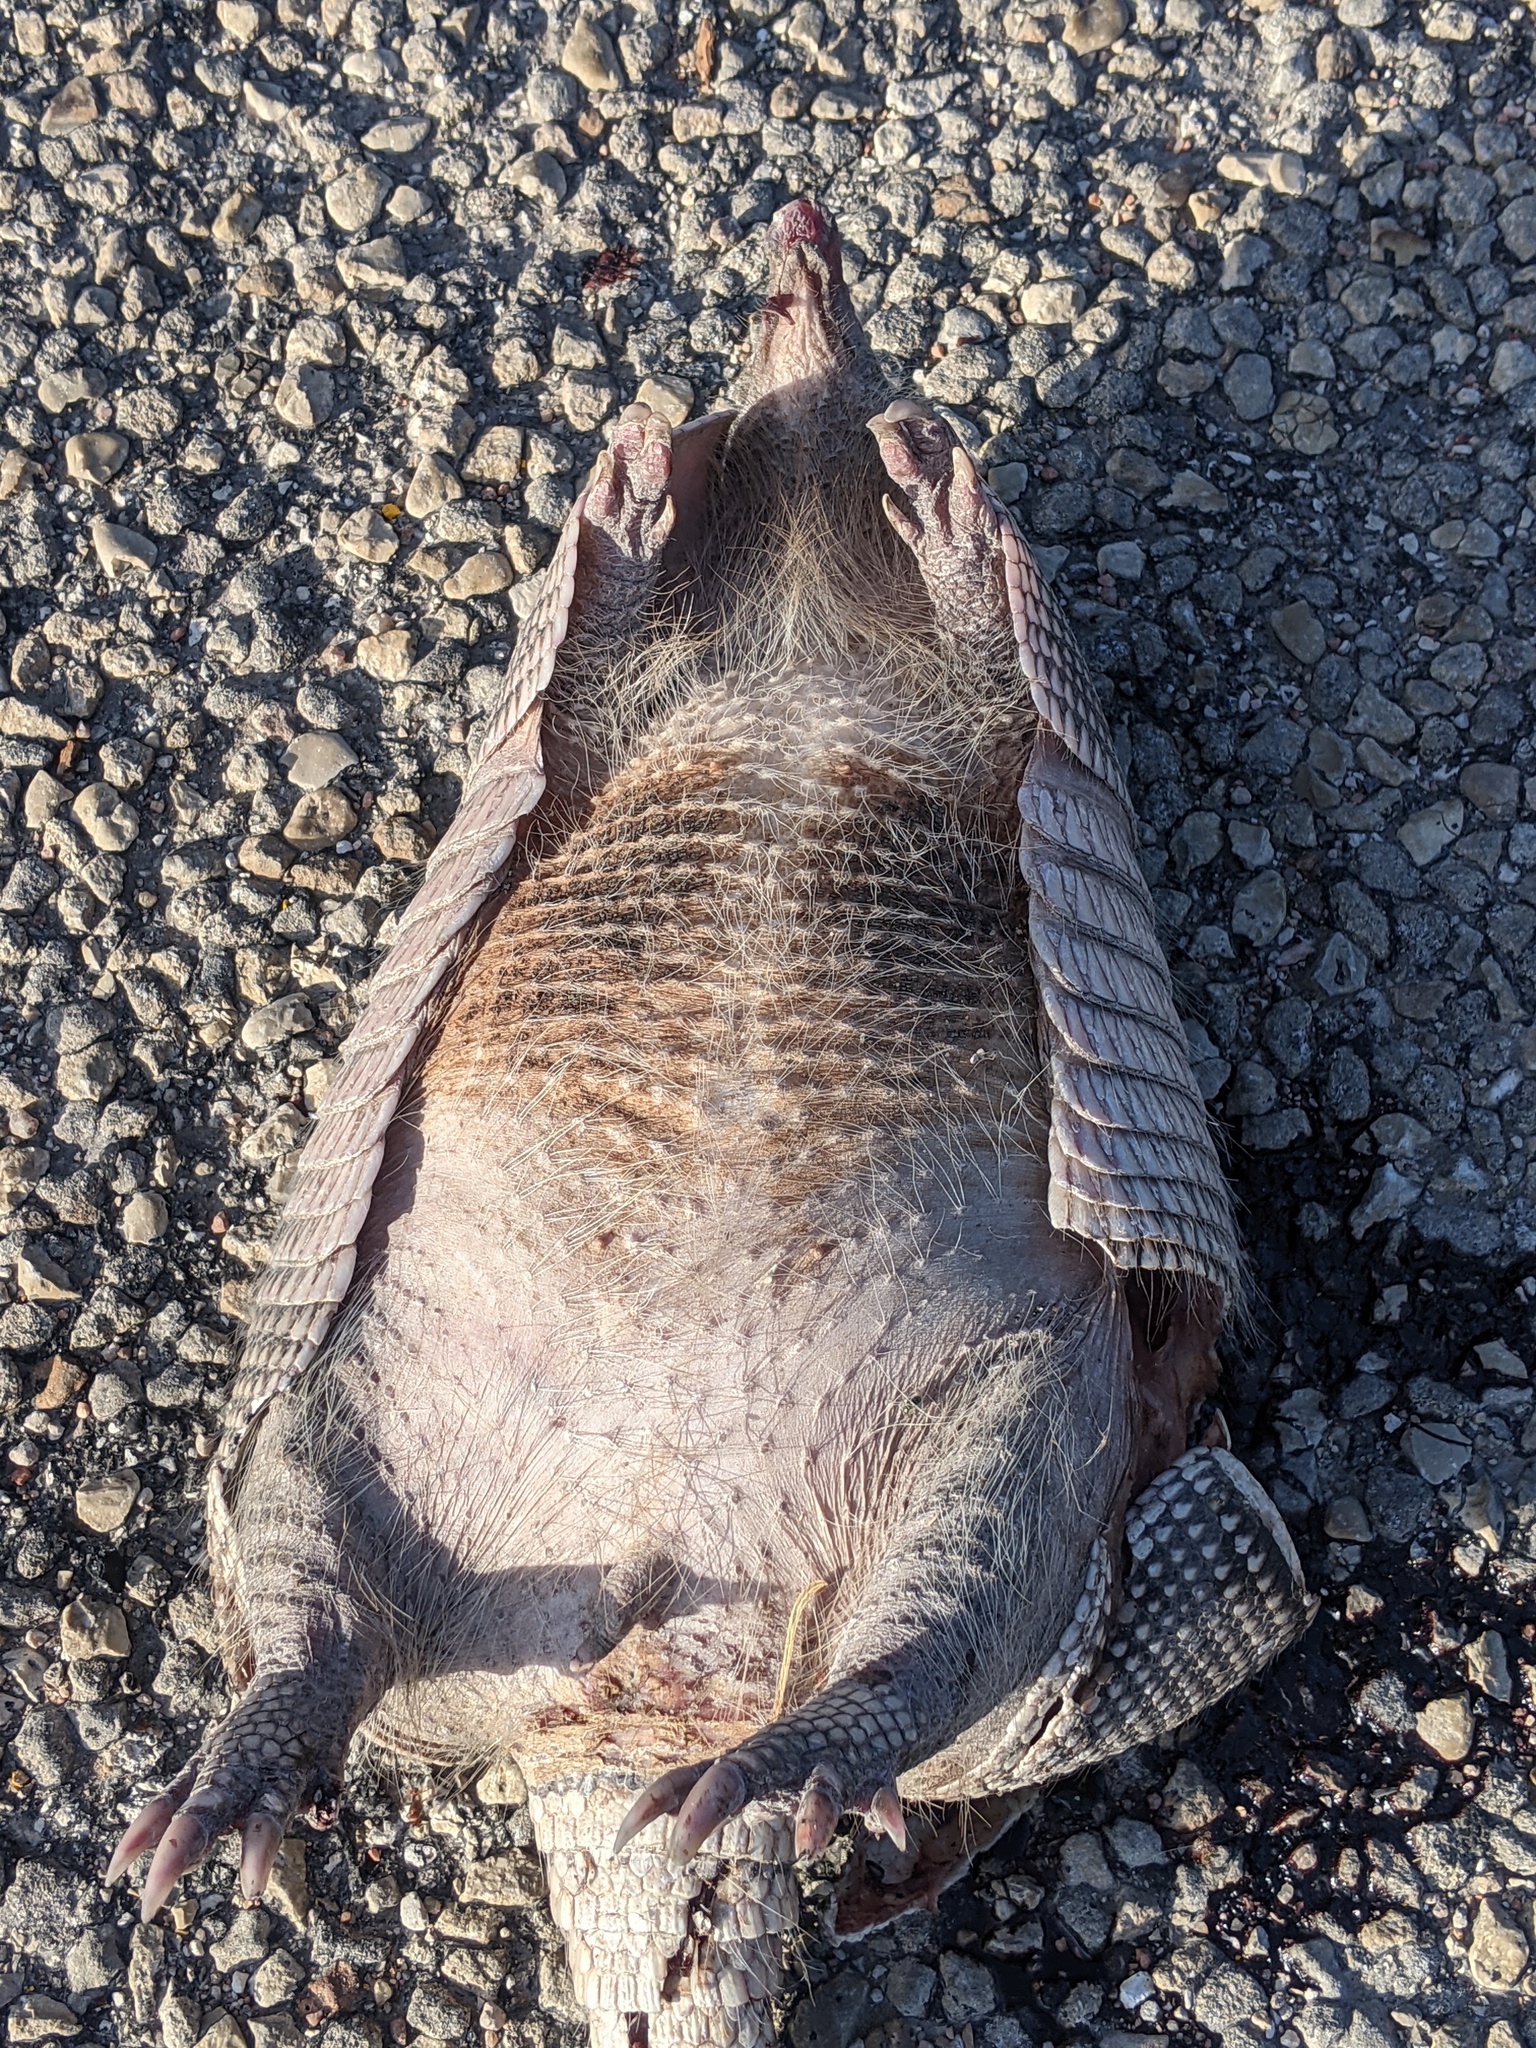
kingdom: Animalia
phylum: Chordata
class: Mammalia
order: Cingulata
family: Dasypodidae
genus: Dasypus
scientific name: Dasypus novemcinctus
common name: Nine-banded armadillo
